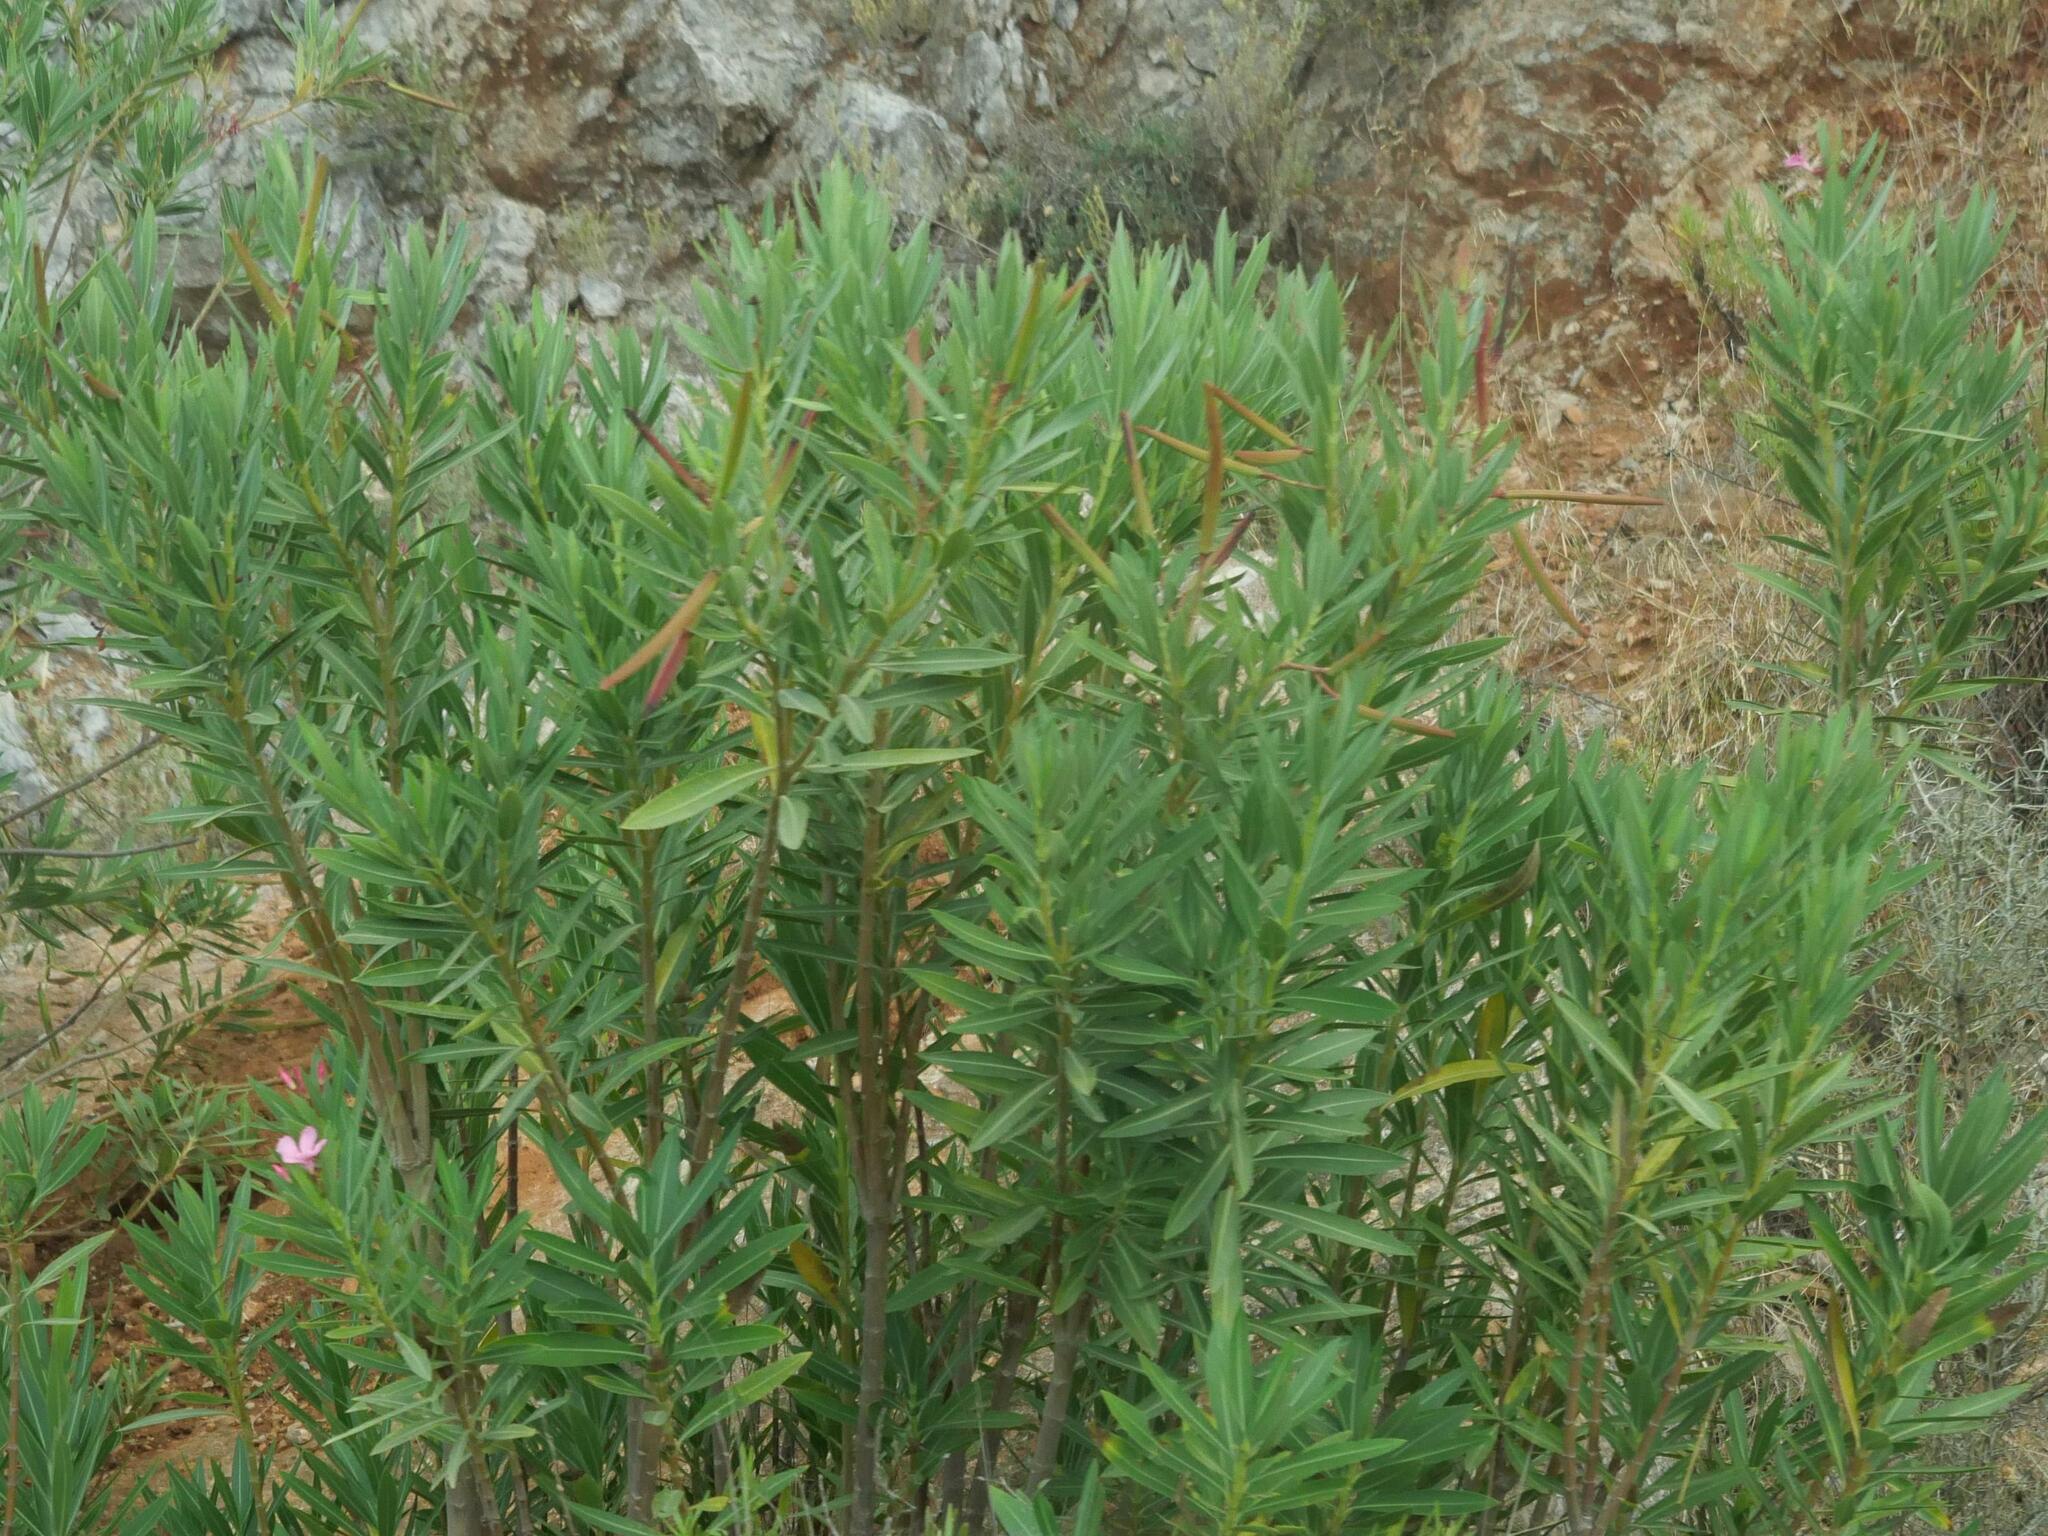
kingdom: Plantae
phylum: Tracheophyta
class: Magnoliopsida
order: Gentianales
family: Apocynaceae
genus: Nerium
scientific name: Nerium oleander
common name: Oleander
